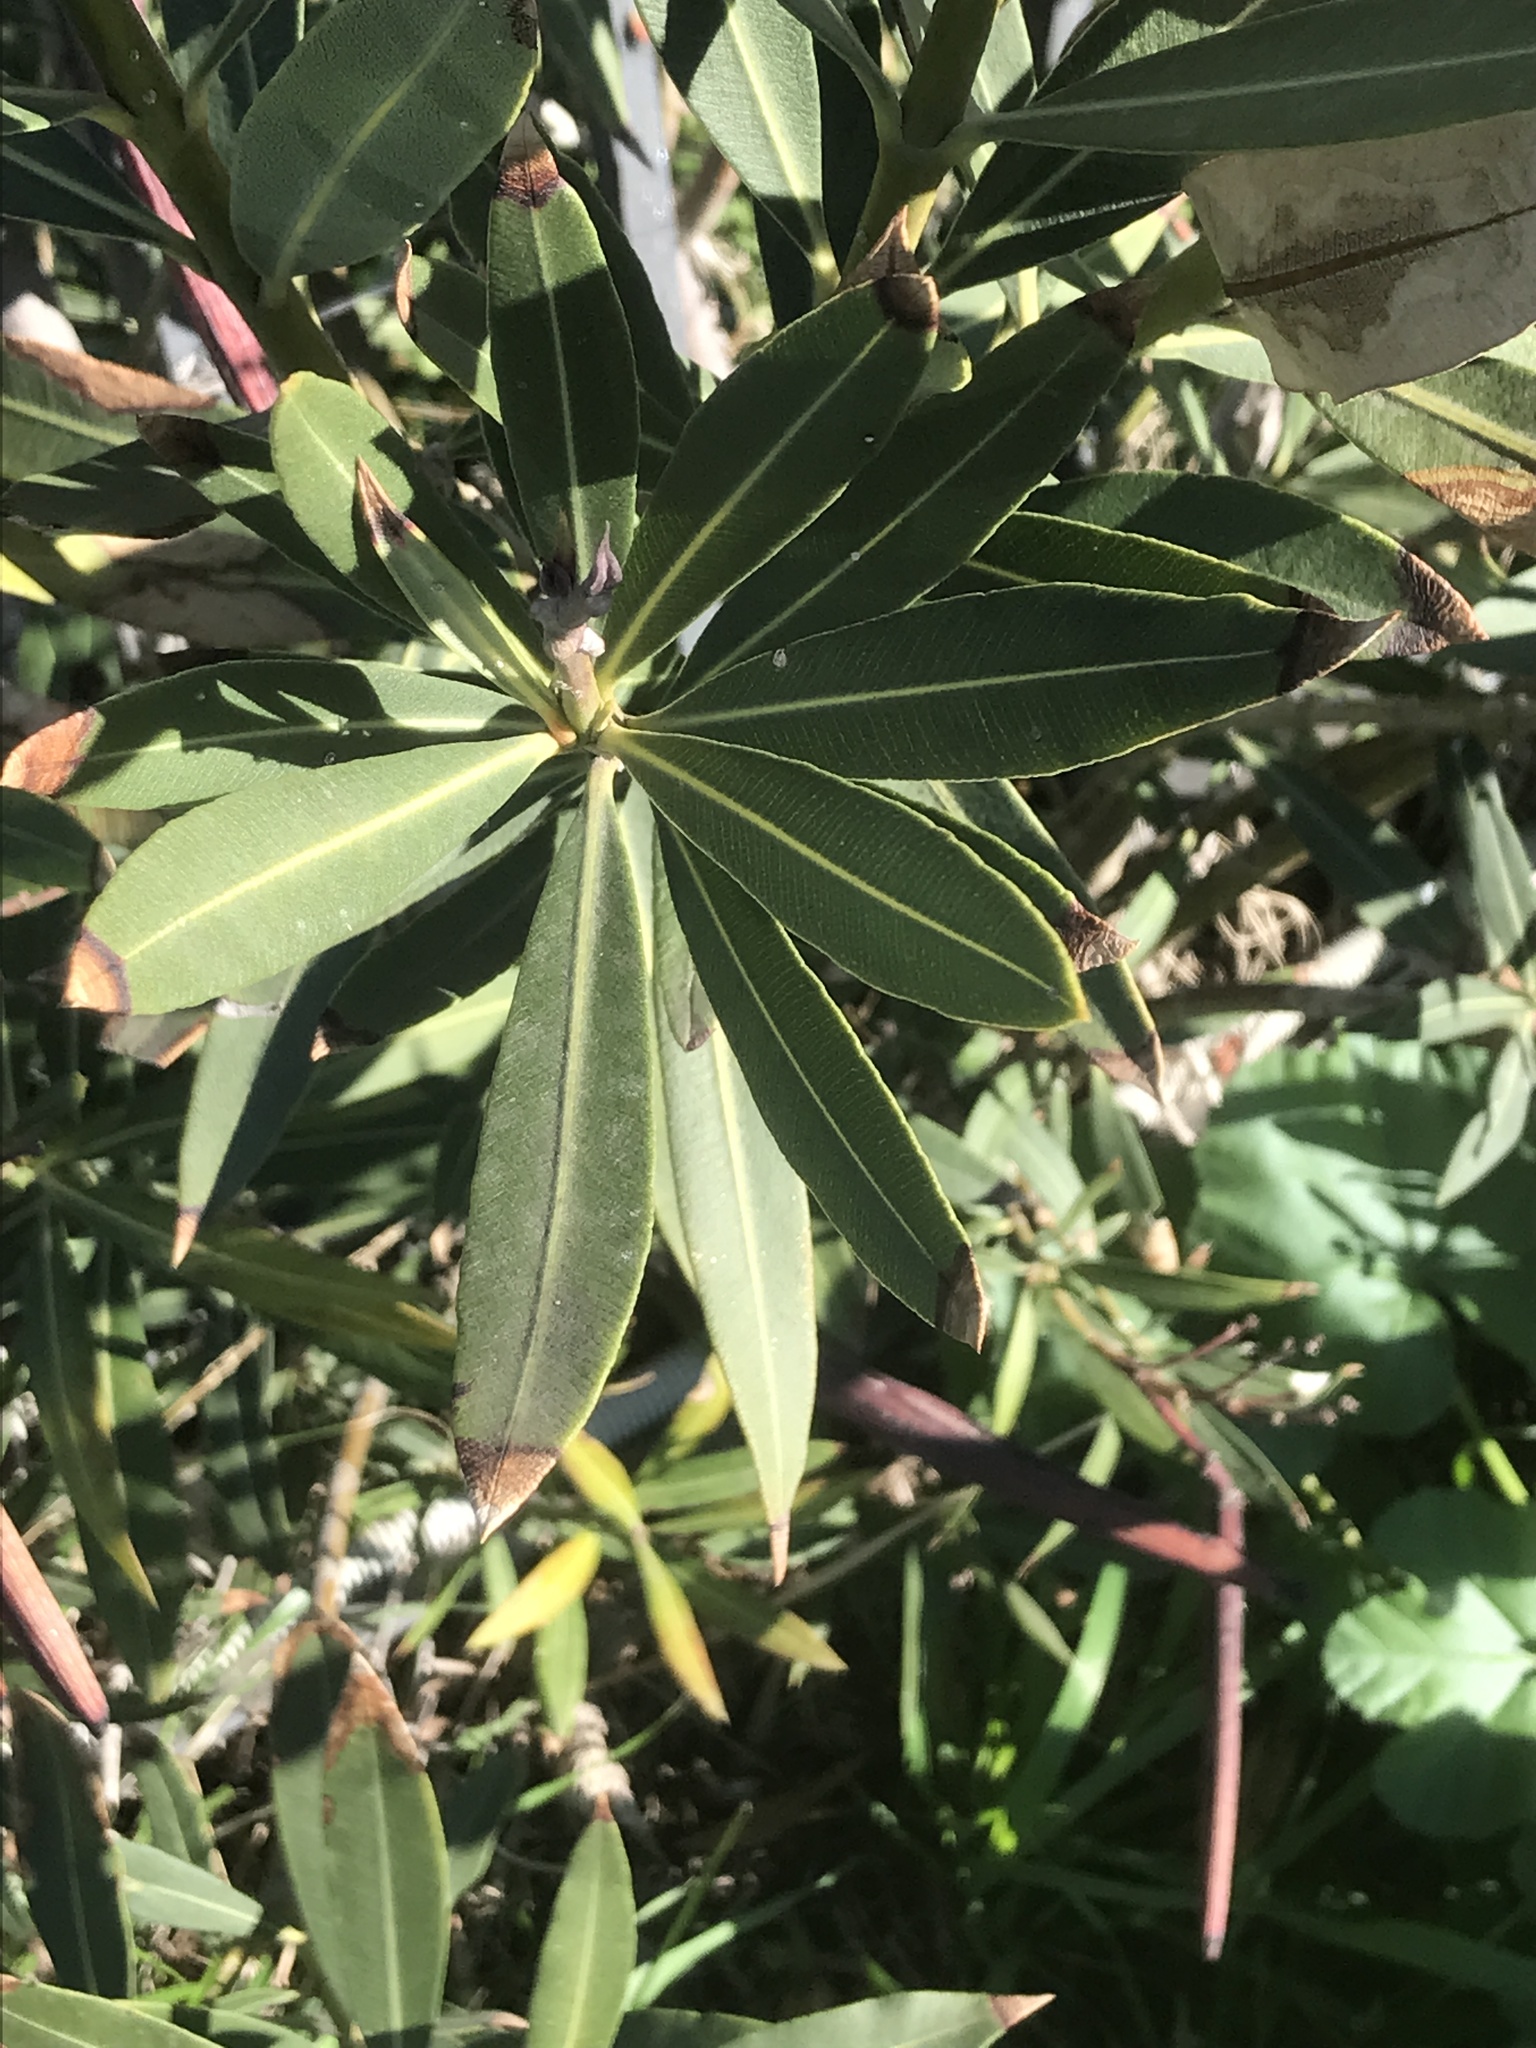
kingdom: Plantae
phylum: Tracheophyta
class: Magnoliopsida
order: Gentianales
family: Apocynaceae
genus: Nerium
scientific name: Nerium oleander
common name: Oleander
